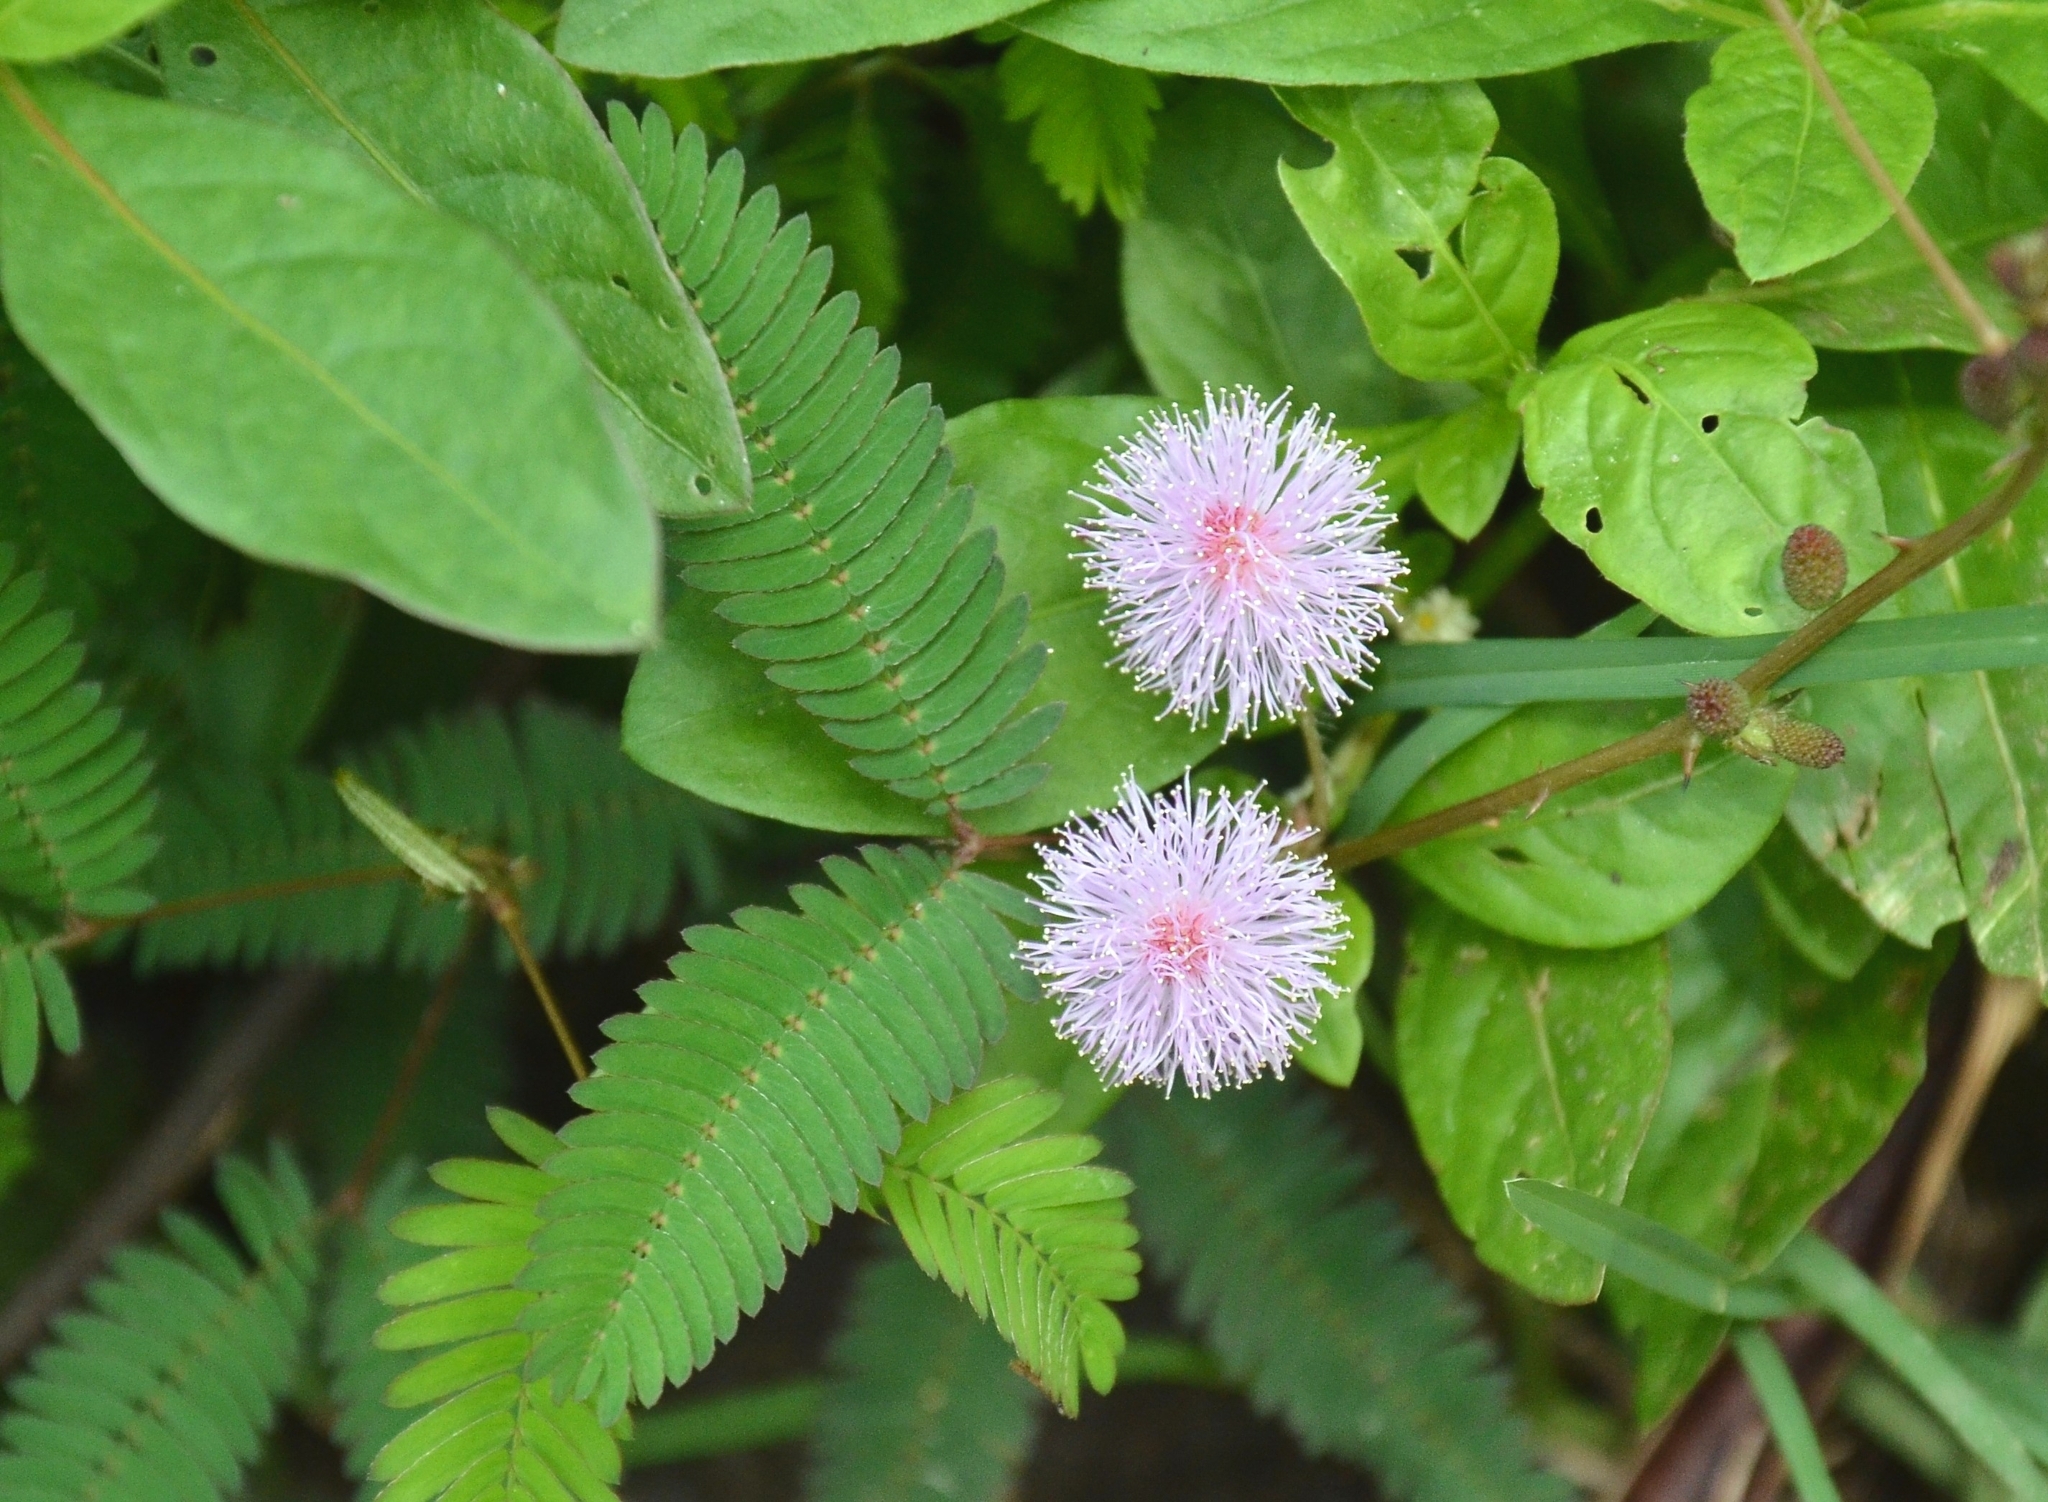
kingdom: Plantae
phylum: Tracheophyta
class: Magnoliopsida
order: Fabales
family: Fabaceae
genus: Mimosa
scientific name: Mimosa pudica
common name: Sensitive plant
